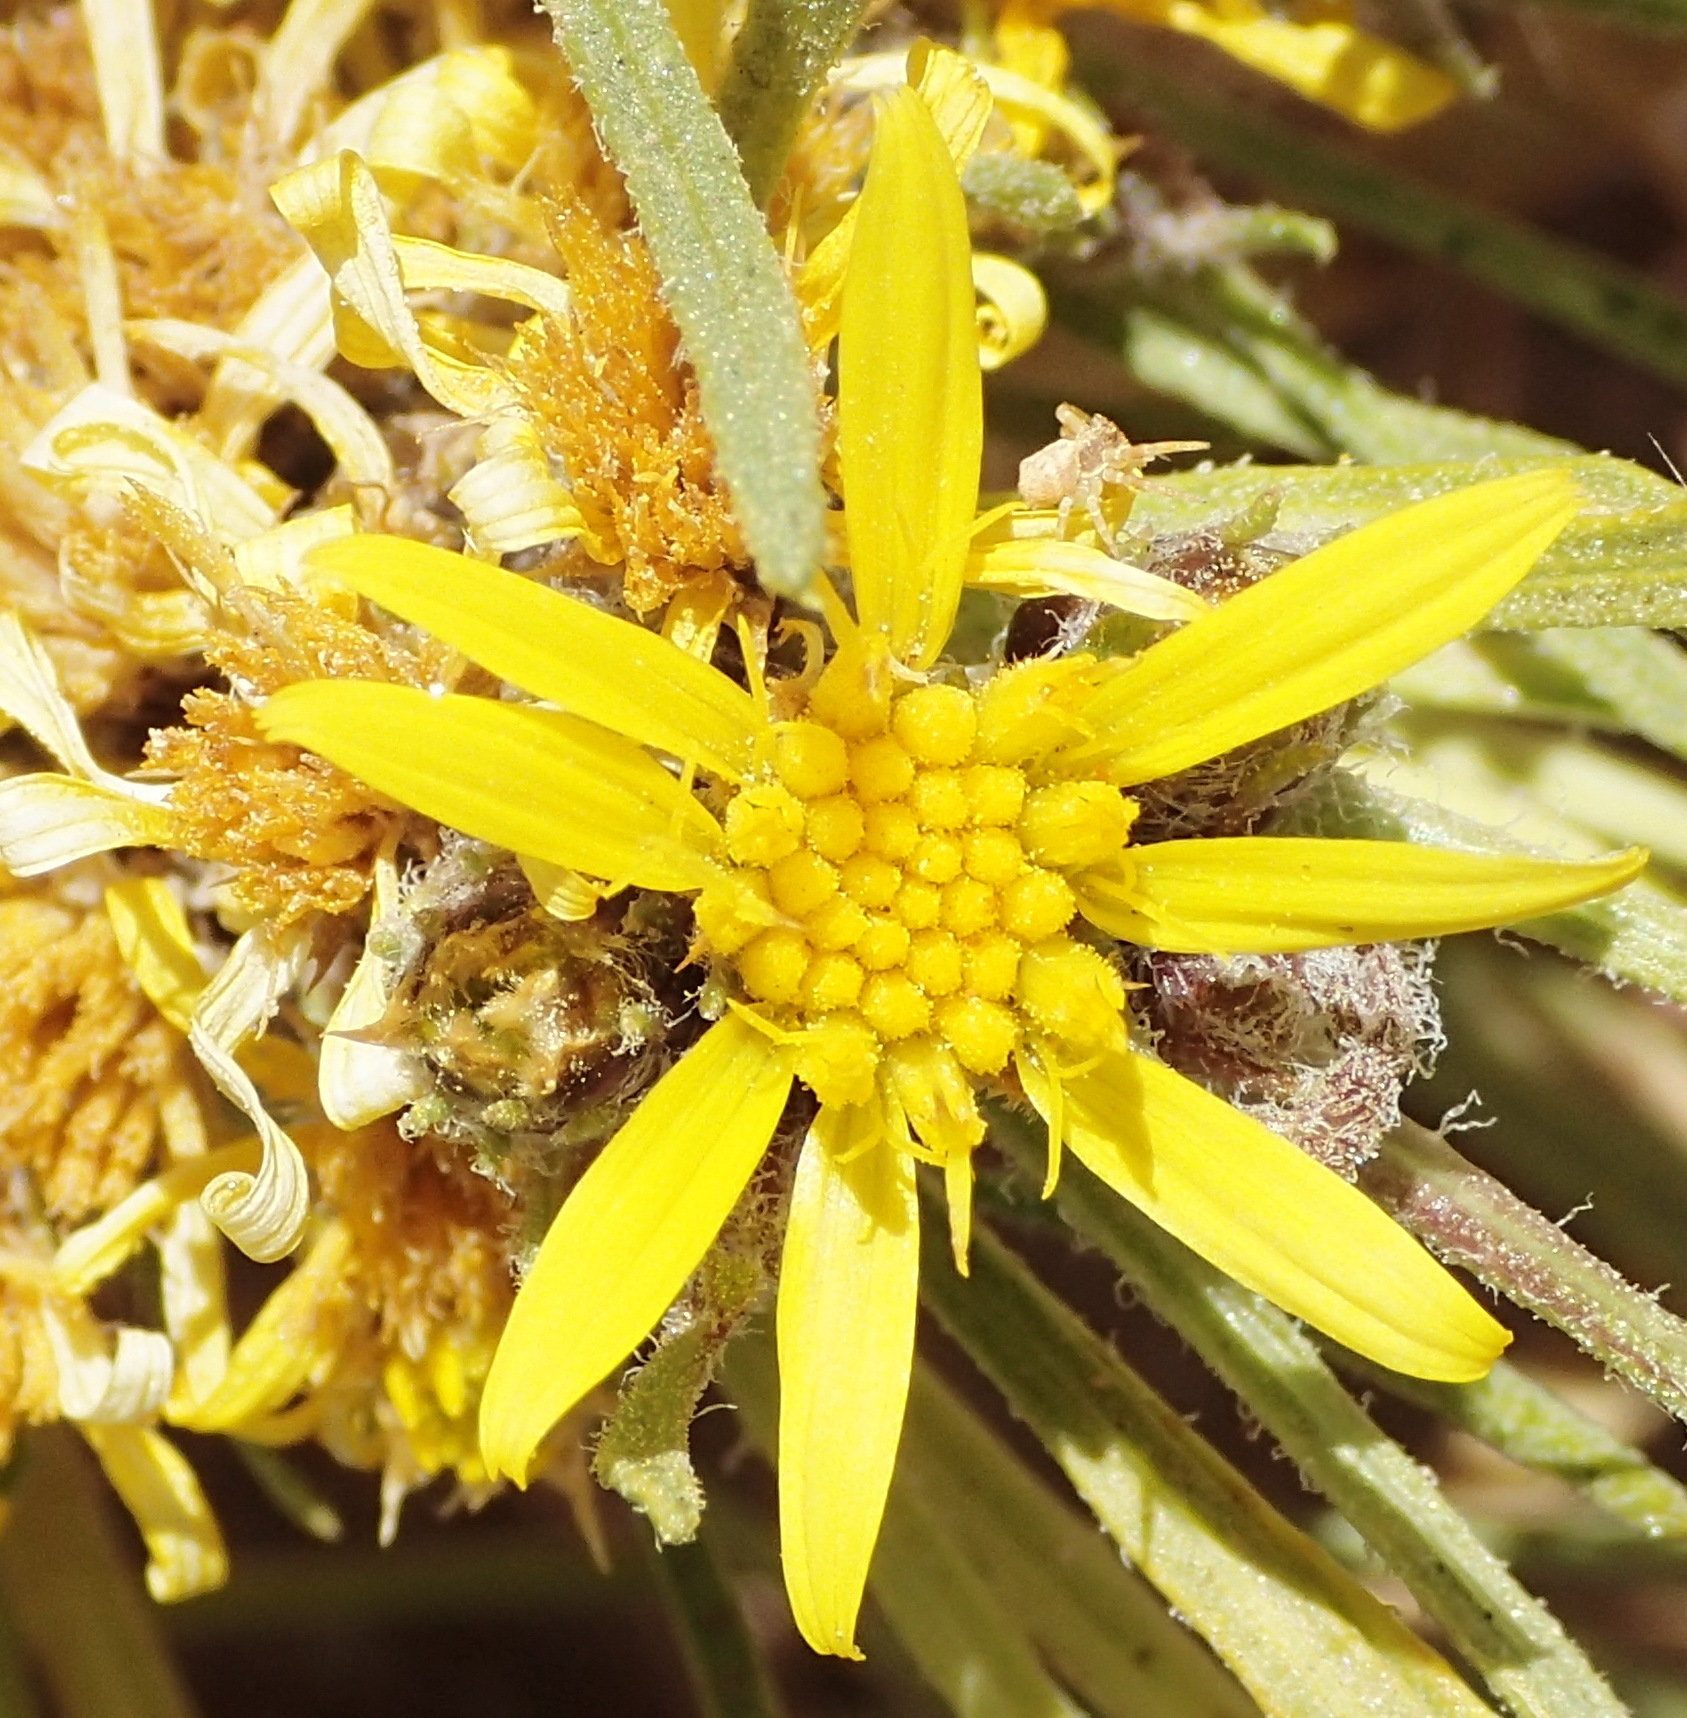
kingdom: Plantae
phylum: Tracheophyta
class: Magnoliopsida
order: Asterales
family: Asteraceae
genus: Geigeria
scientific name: Geigeria ornativa
